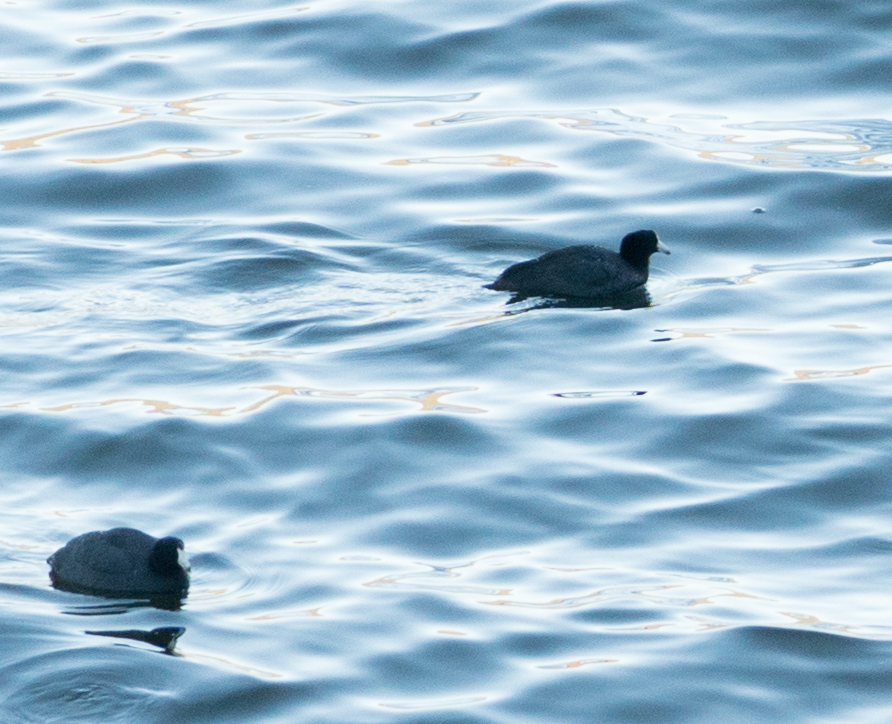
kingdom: Animalia
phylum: Chordata
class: Aves
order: Gruiformes
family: Rallidae
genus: Fulica
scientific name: Fulica americana
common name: American coot
